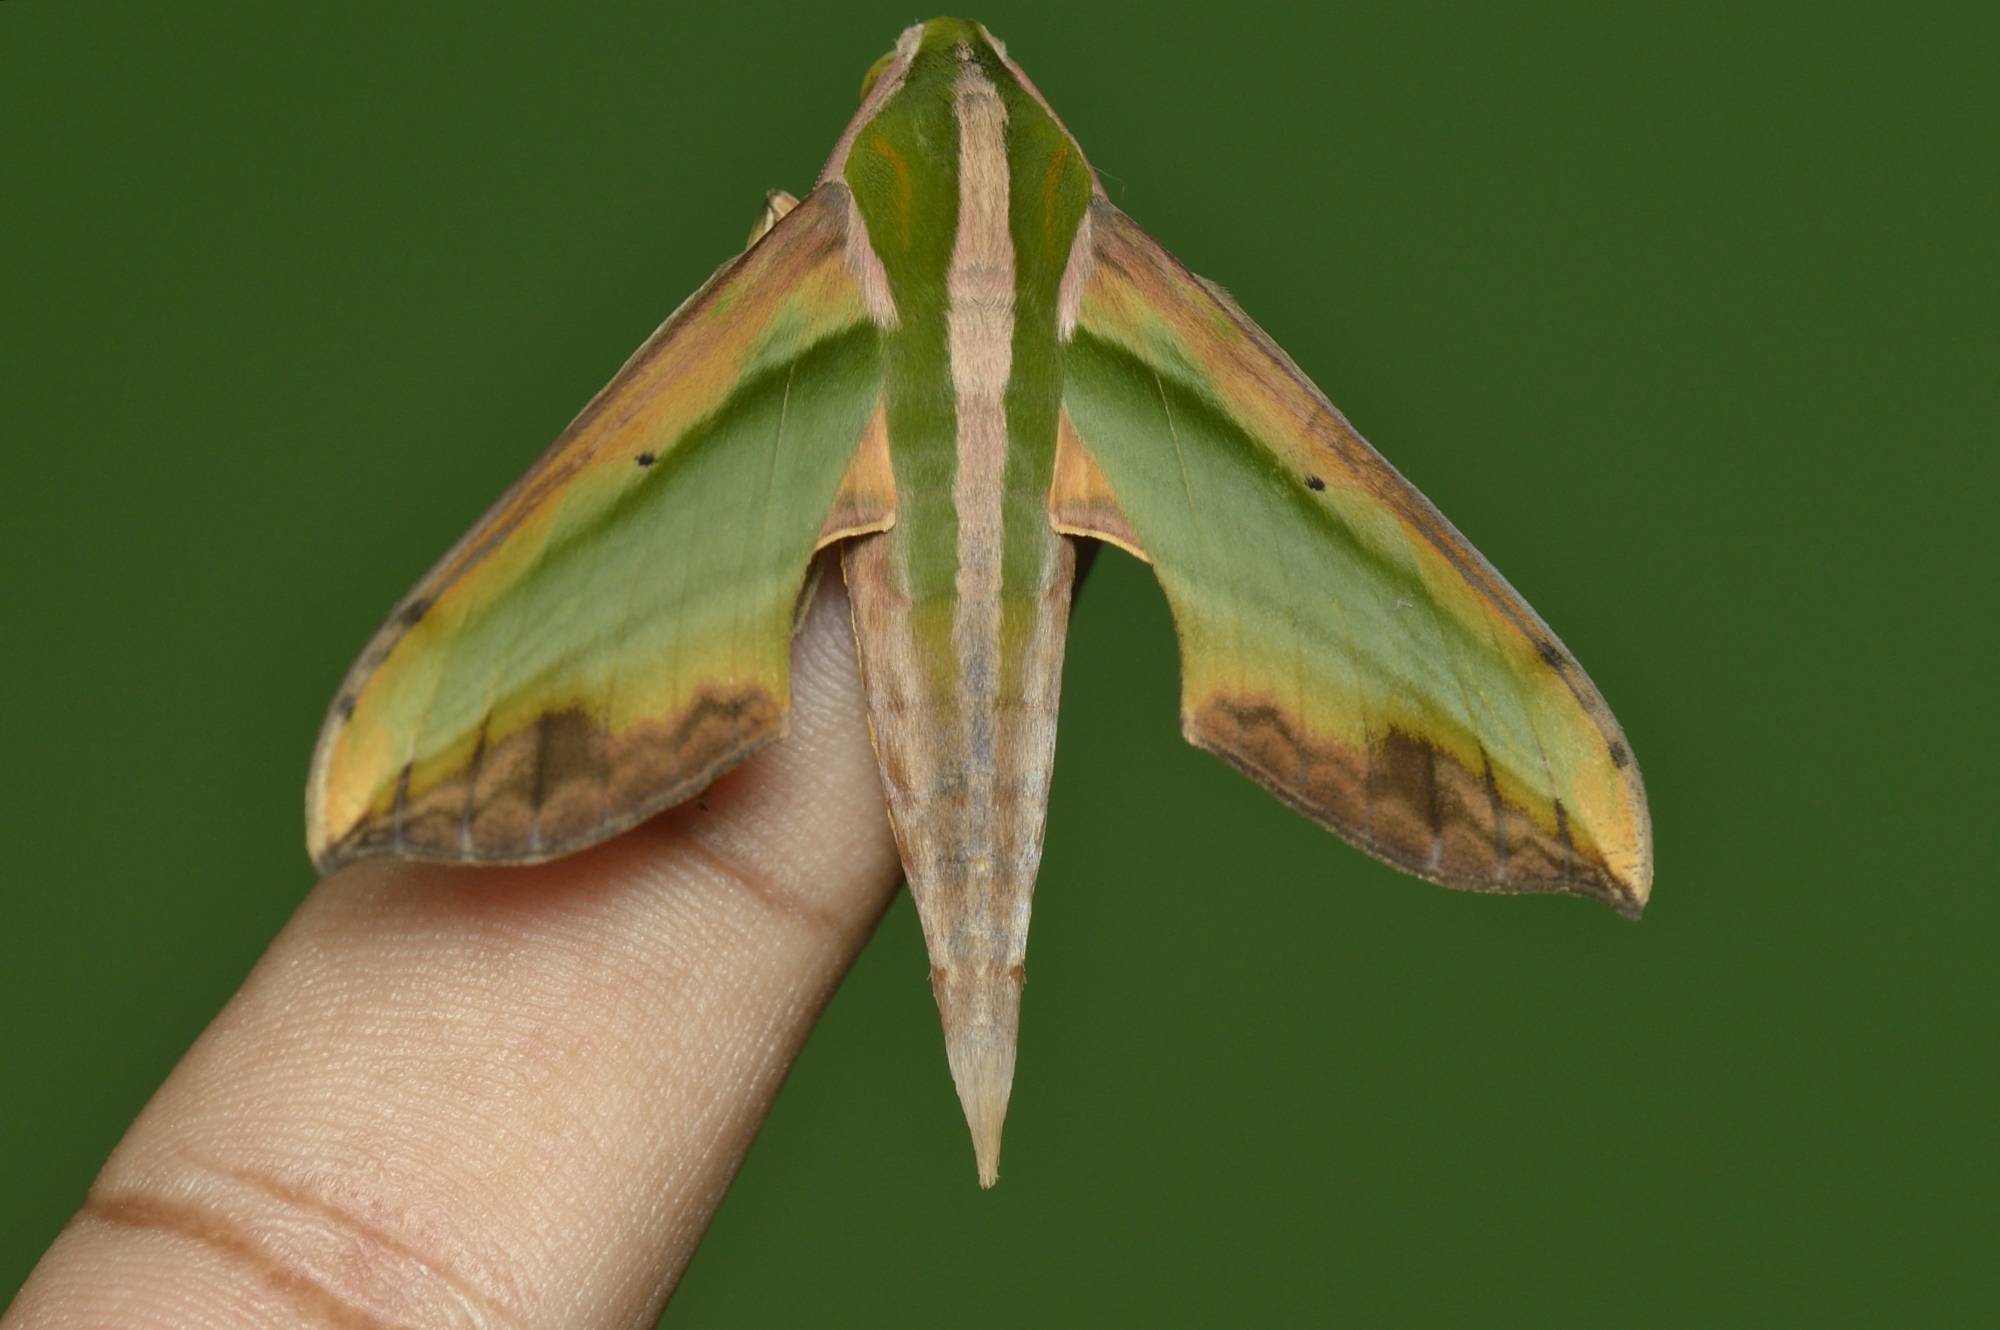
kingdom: Animalia
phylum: Arthropoda
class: Insecta
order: Lepidoptera
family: Sphingidae
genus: Pergesa
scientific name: Pergesa acteus
